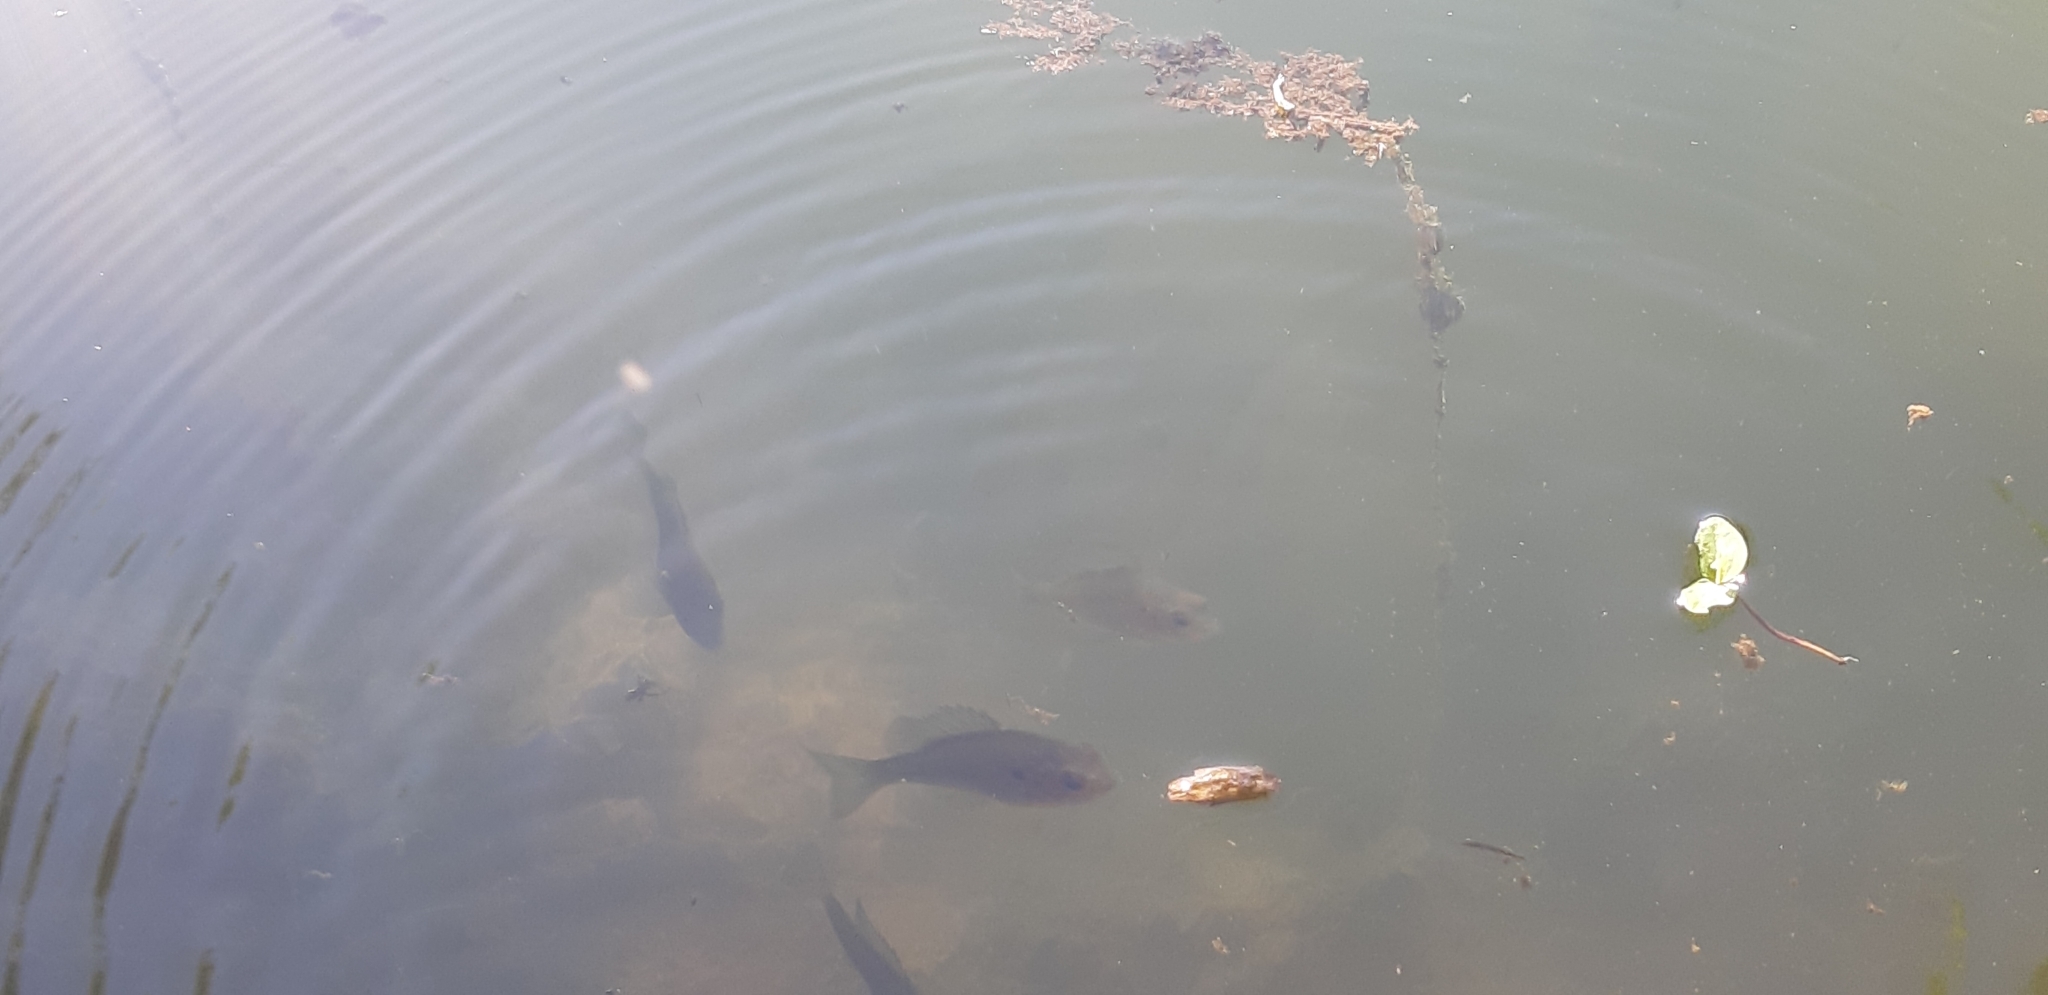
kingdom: Animalia
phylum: Chordata
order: Perciformes
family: Centrarchidae
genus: Lepomis
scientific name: Lepomis gibbosus
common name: Pumpkinseed
